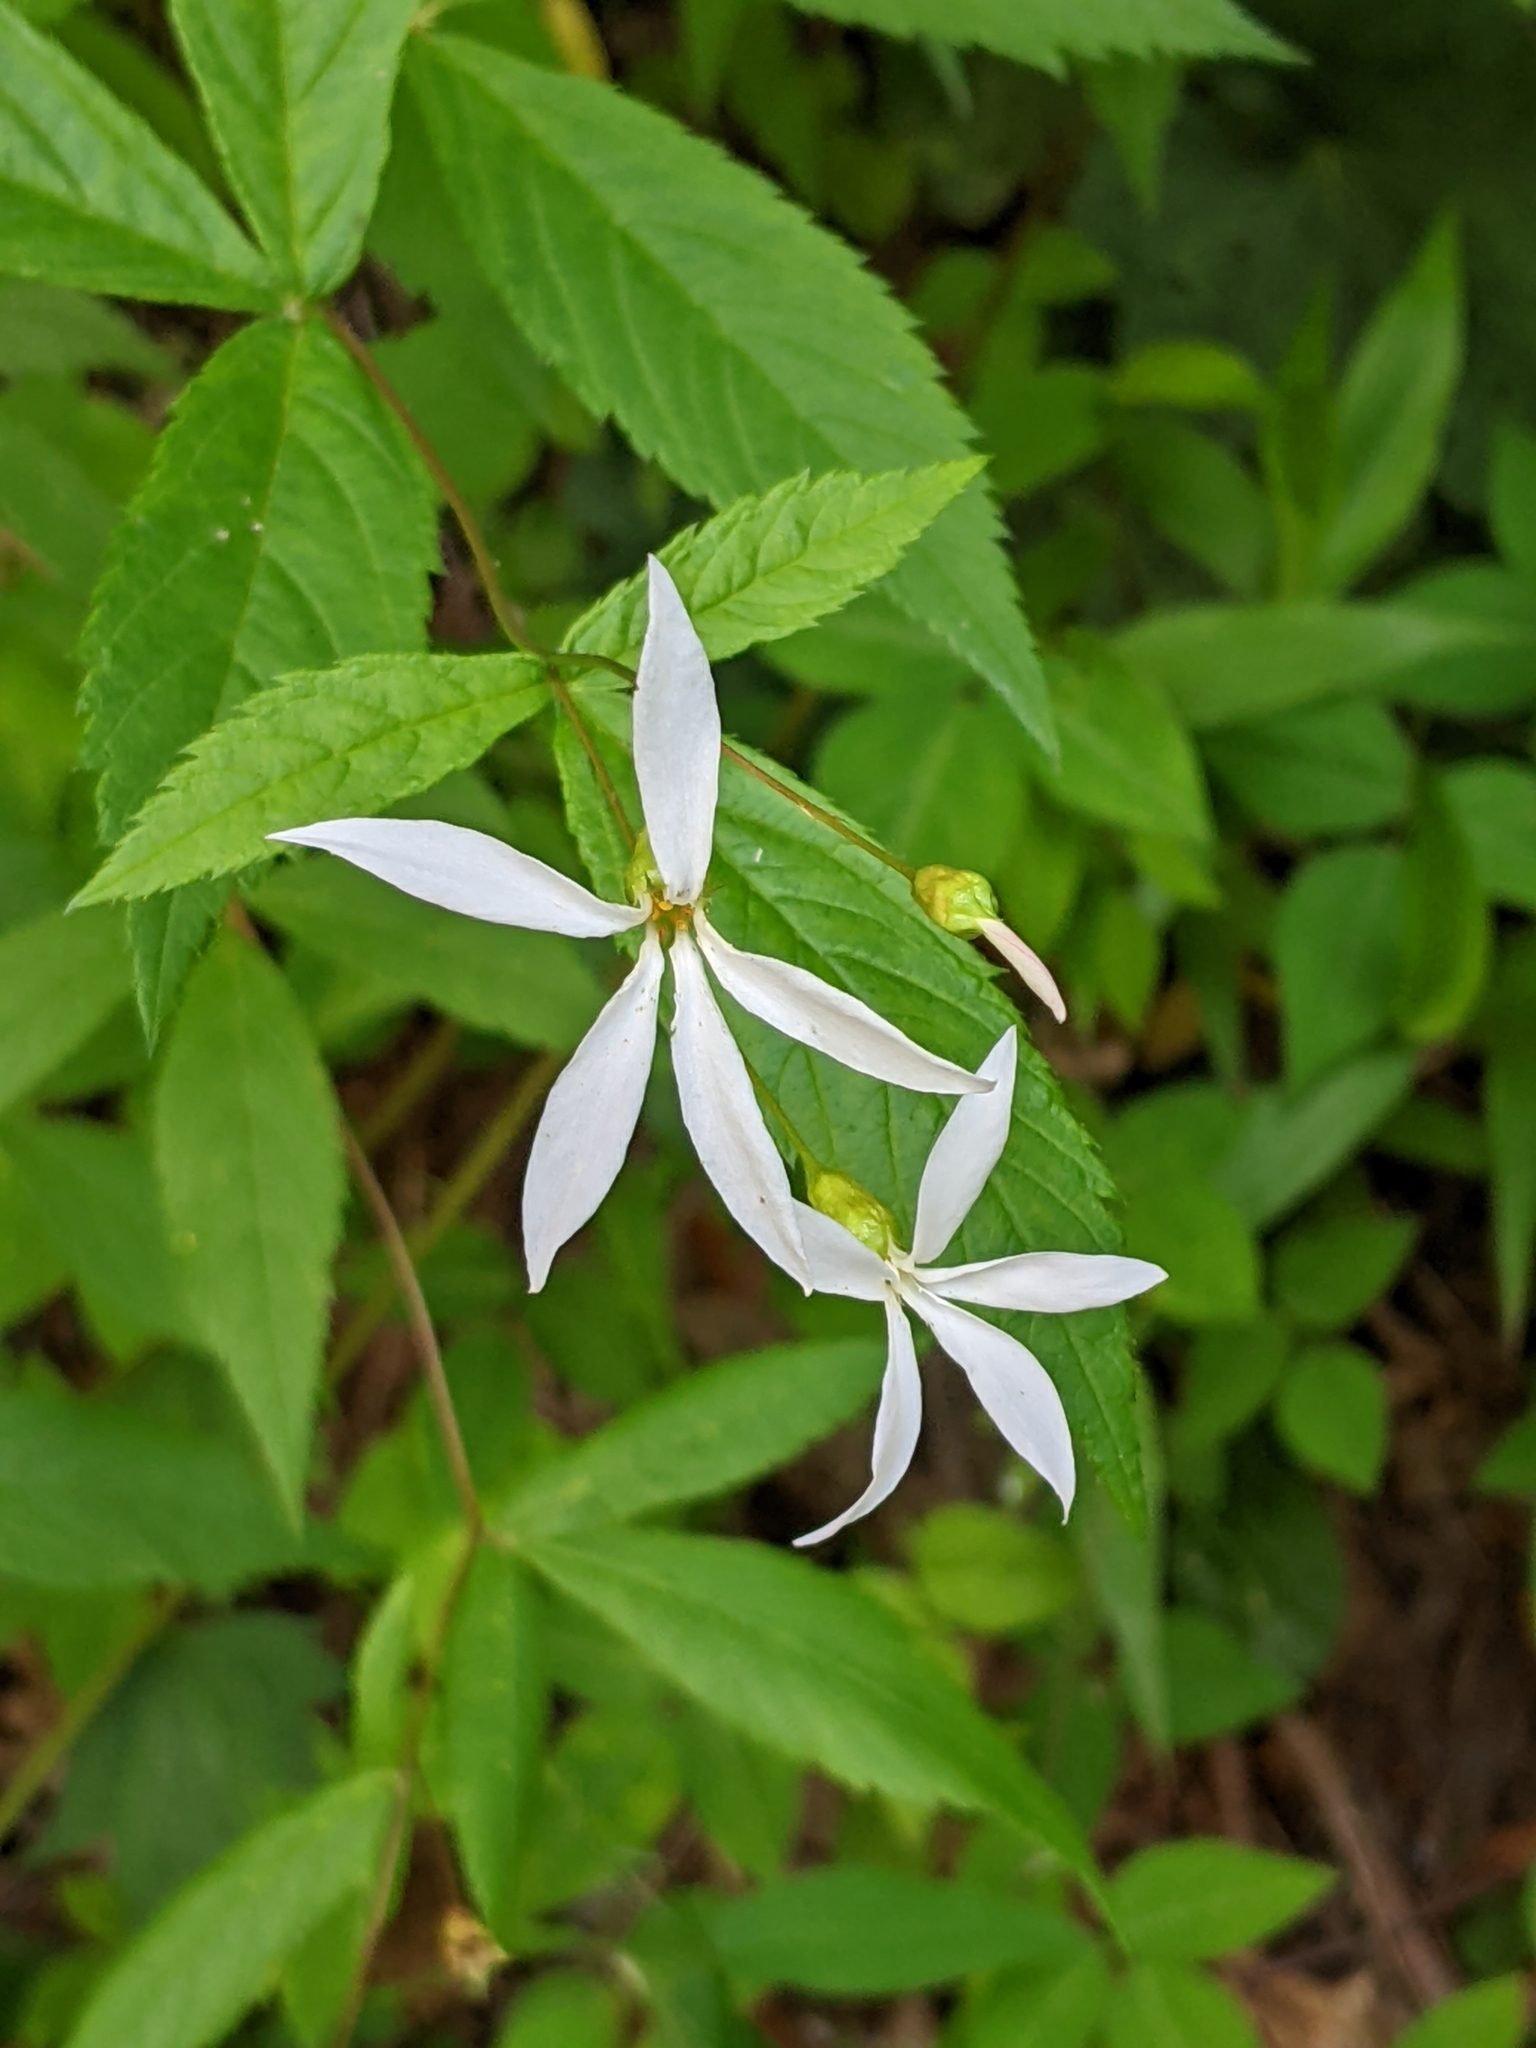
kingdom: Plantae
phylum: Tracheophyta
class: Magnoliopsida
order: Rosales
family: Rosaceae
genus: Gillenia
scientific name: Gillenia trifoliata
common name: Bowman's-root
